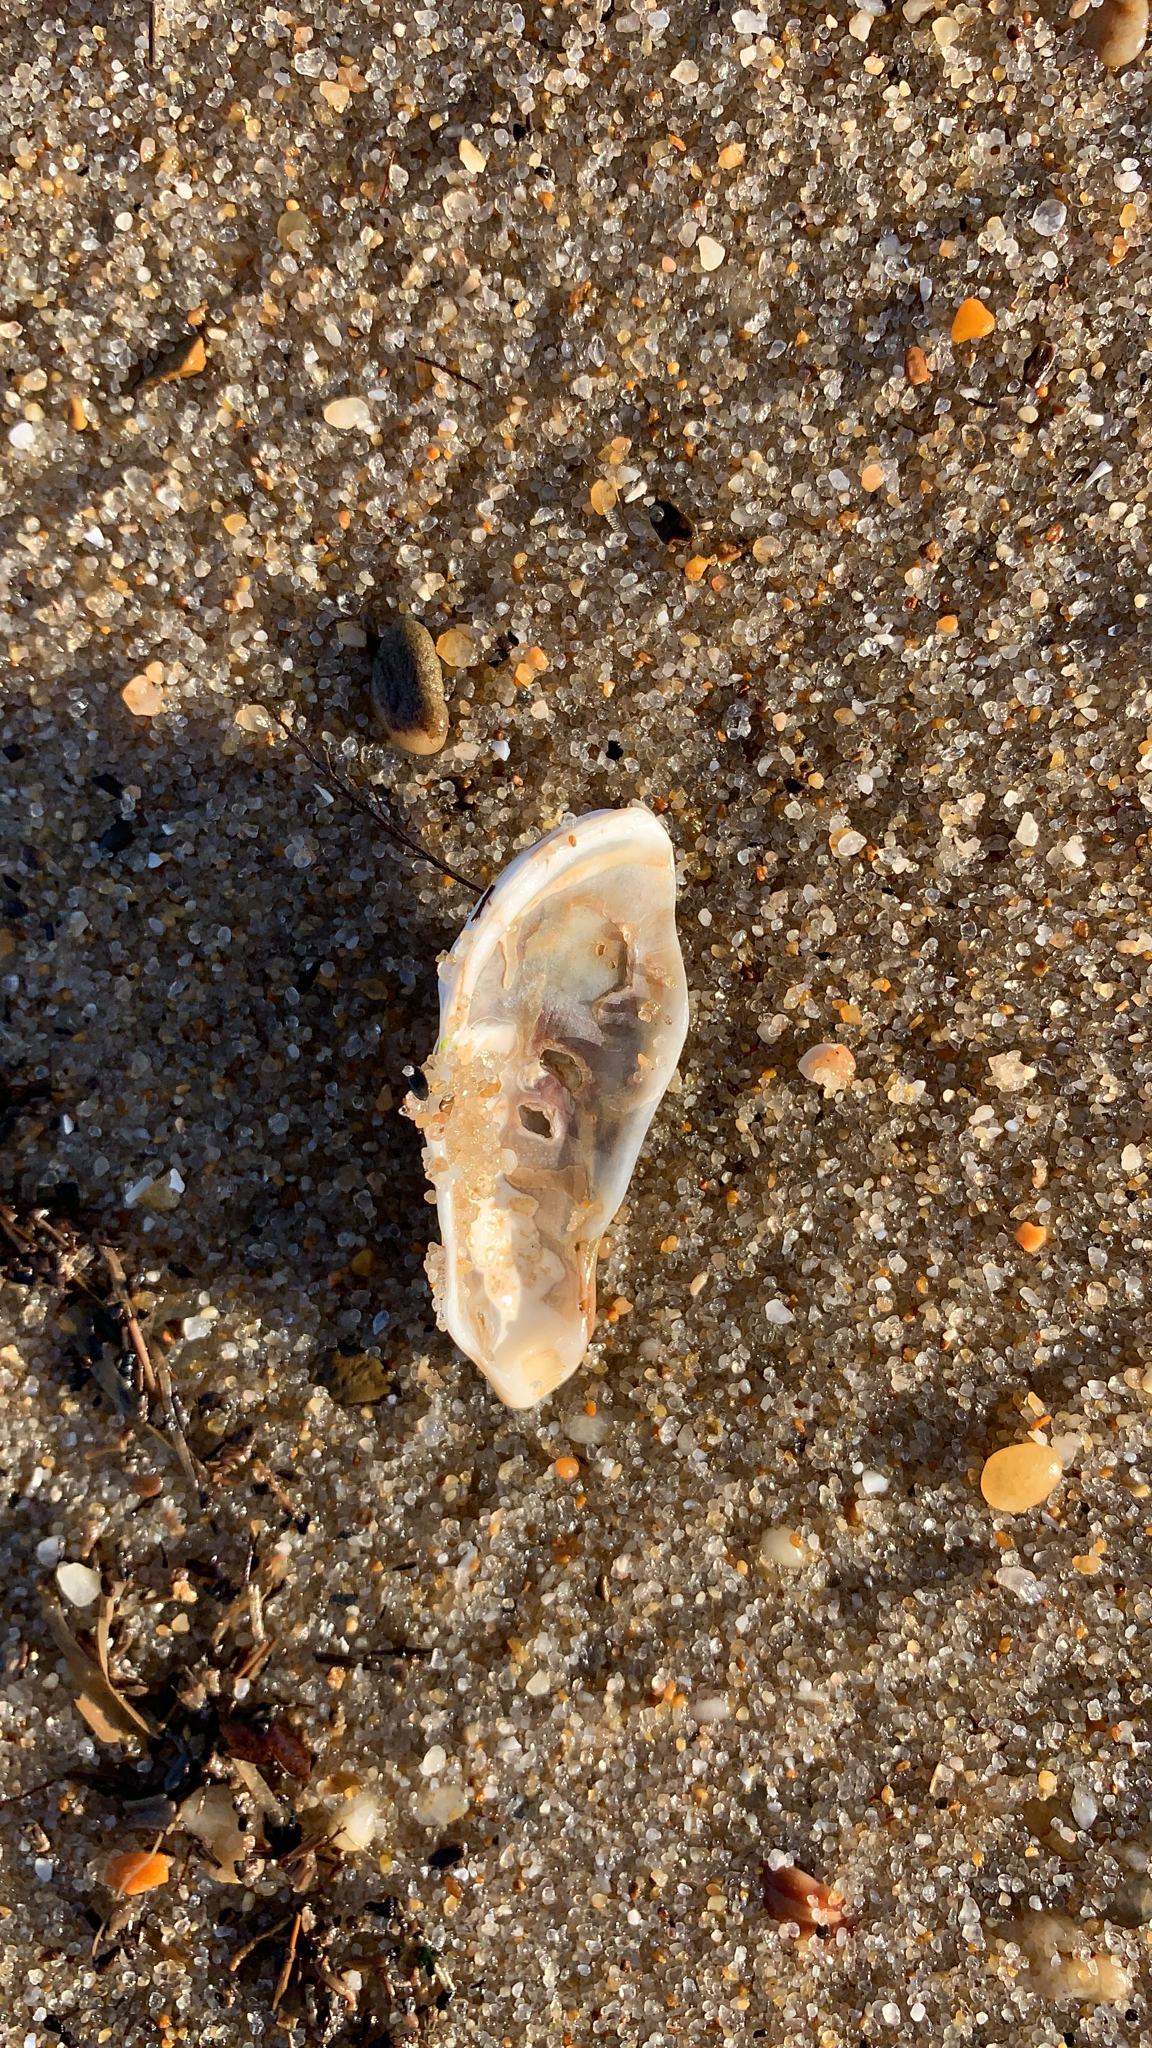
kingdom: Animalia
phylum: Mollusca
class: Bivalvia
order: Ostreida
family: Ostreidae
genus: Crassostrea
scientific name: Crassostrea virginica
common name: American oyster
